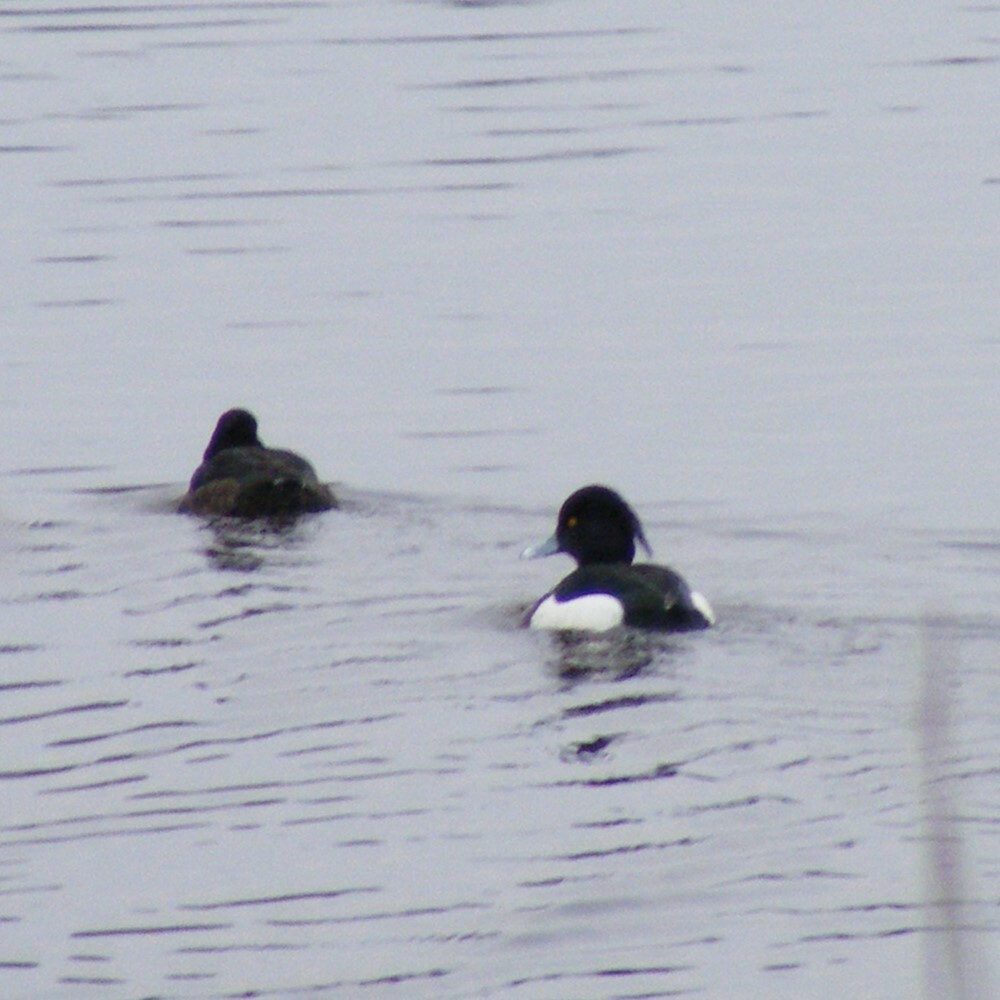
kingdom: Animalia
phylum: Chordata
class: Aves
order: Anseriformes
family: Anatidae
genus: Aythya
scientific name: Aythya fuligula
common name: Tufted duck
